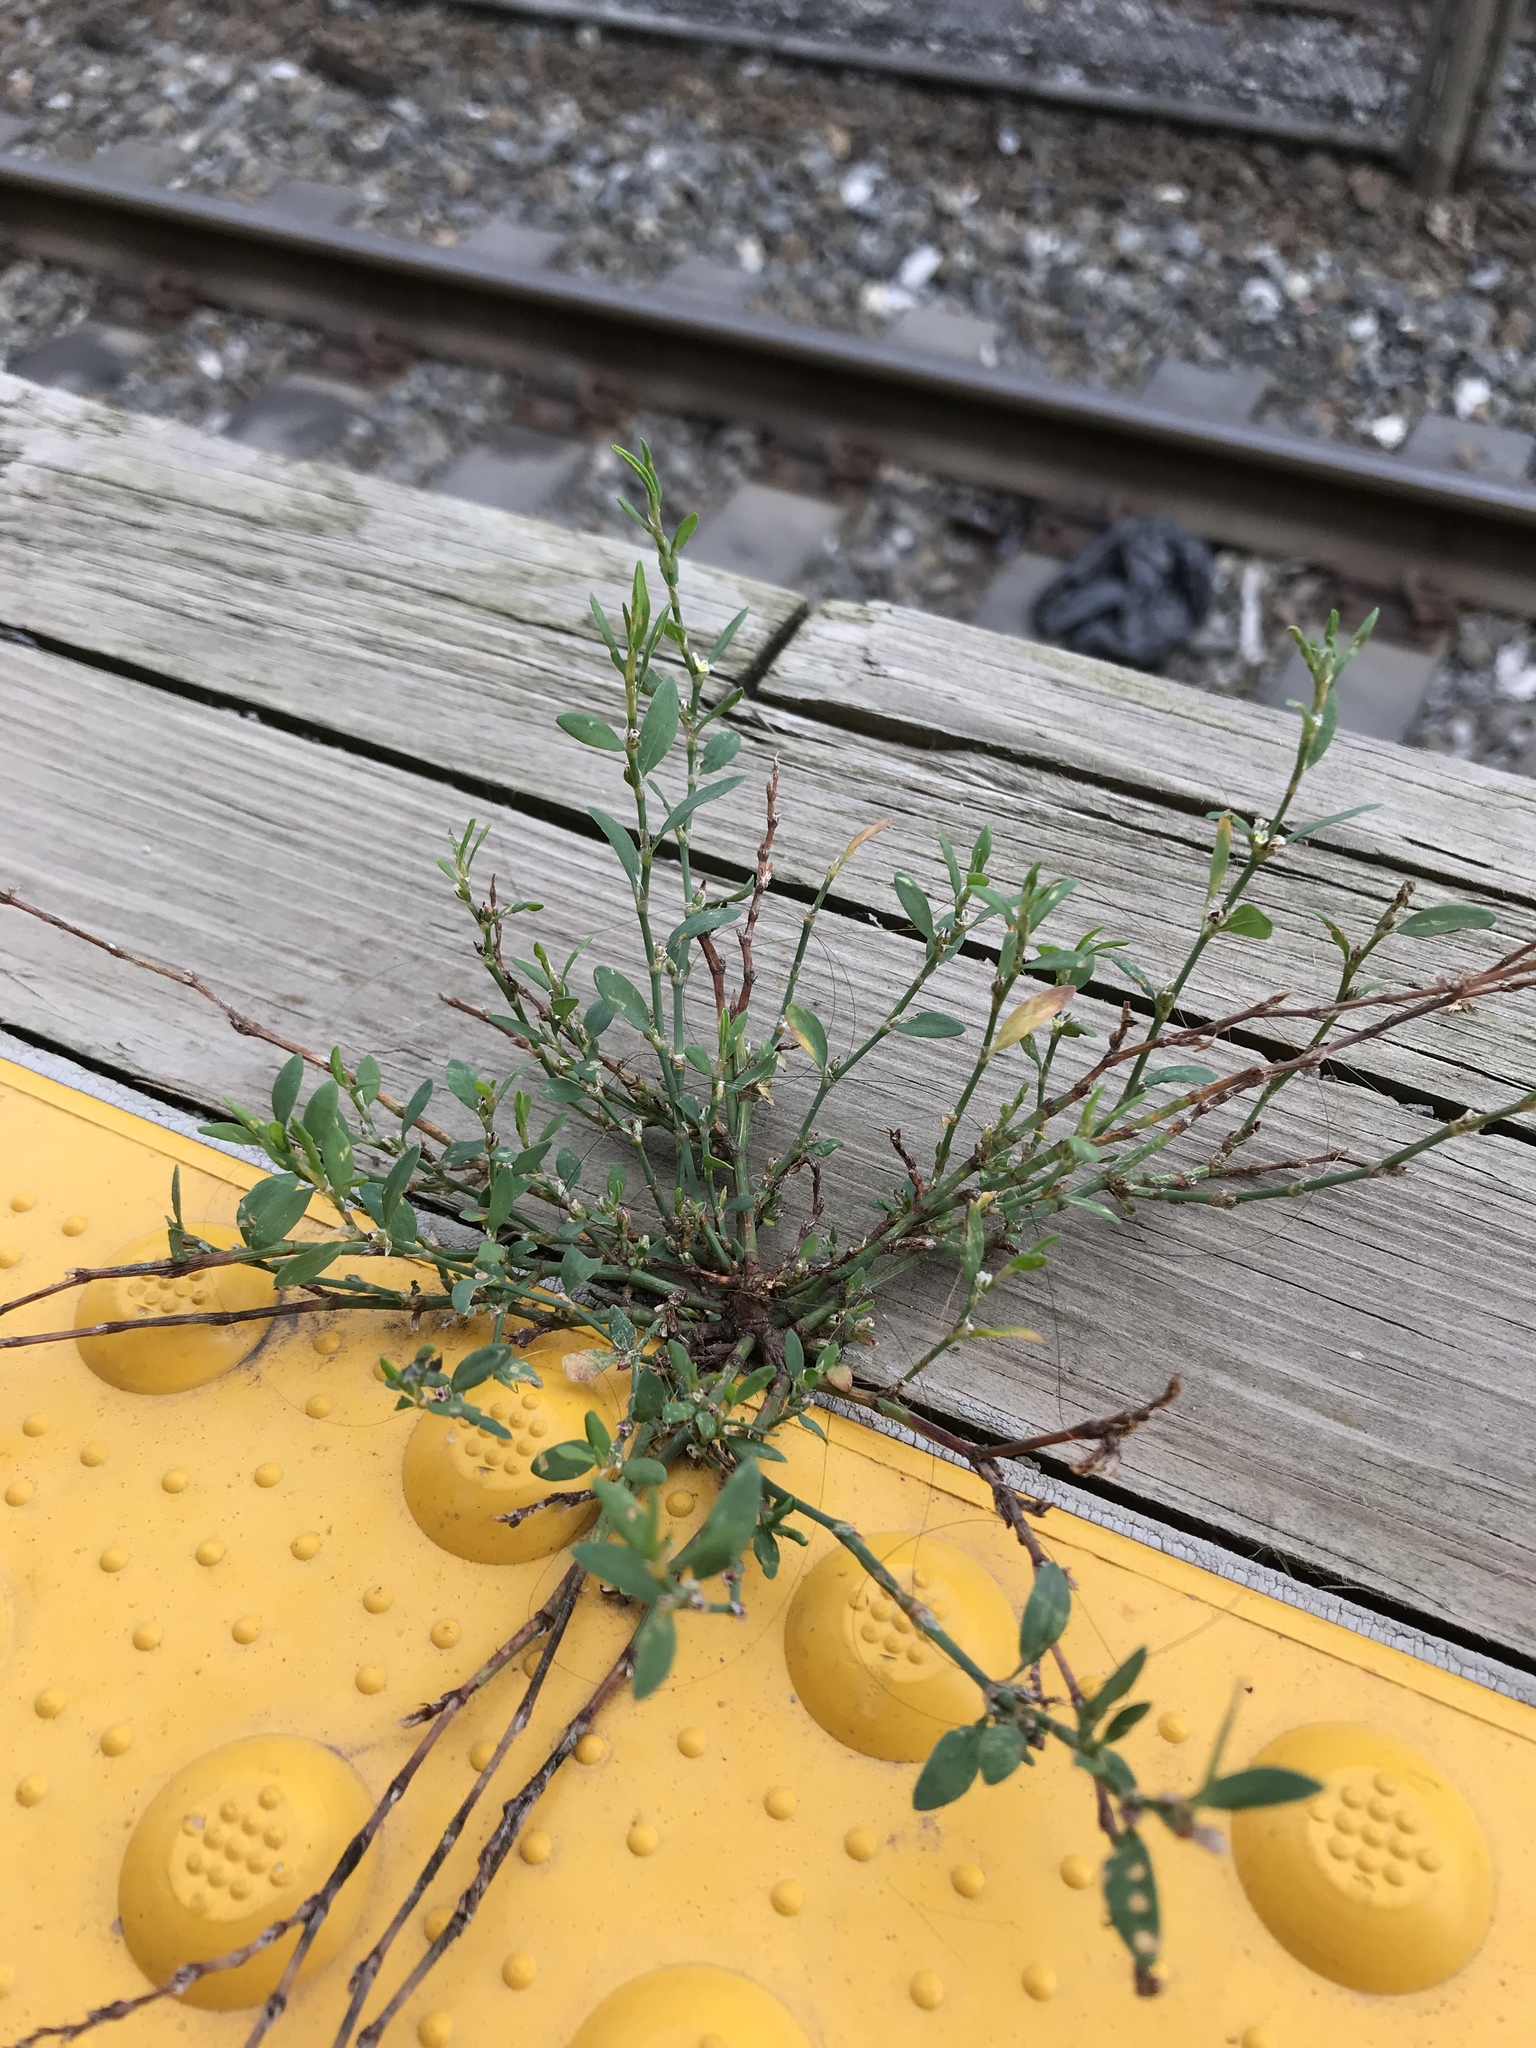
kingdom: Plantae
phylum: Tracheophyta
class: Magnoliopsida
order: Caryophyllales
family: Polygonaceae
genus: Polygonum
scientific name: Polygonum aviculare
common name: Prostrate knotweed
